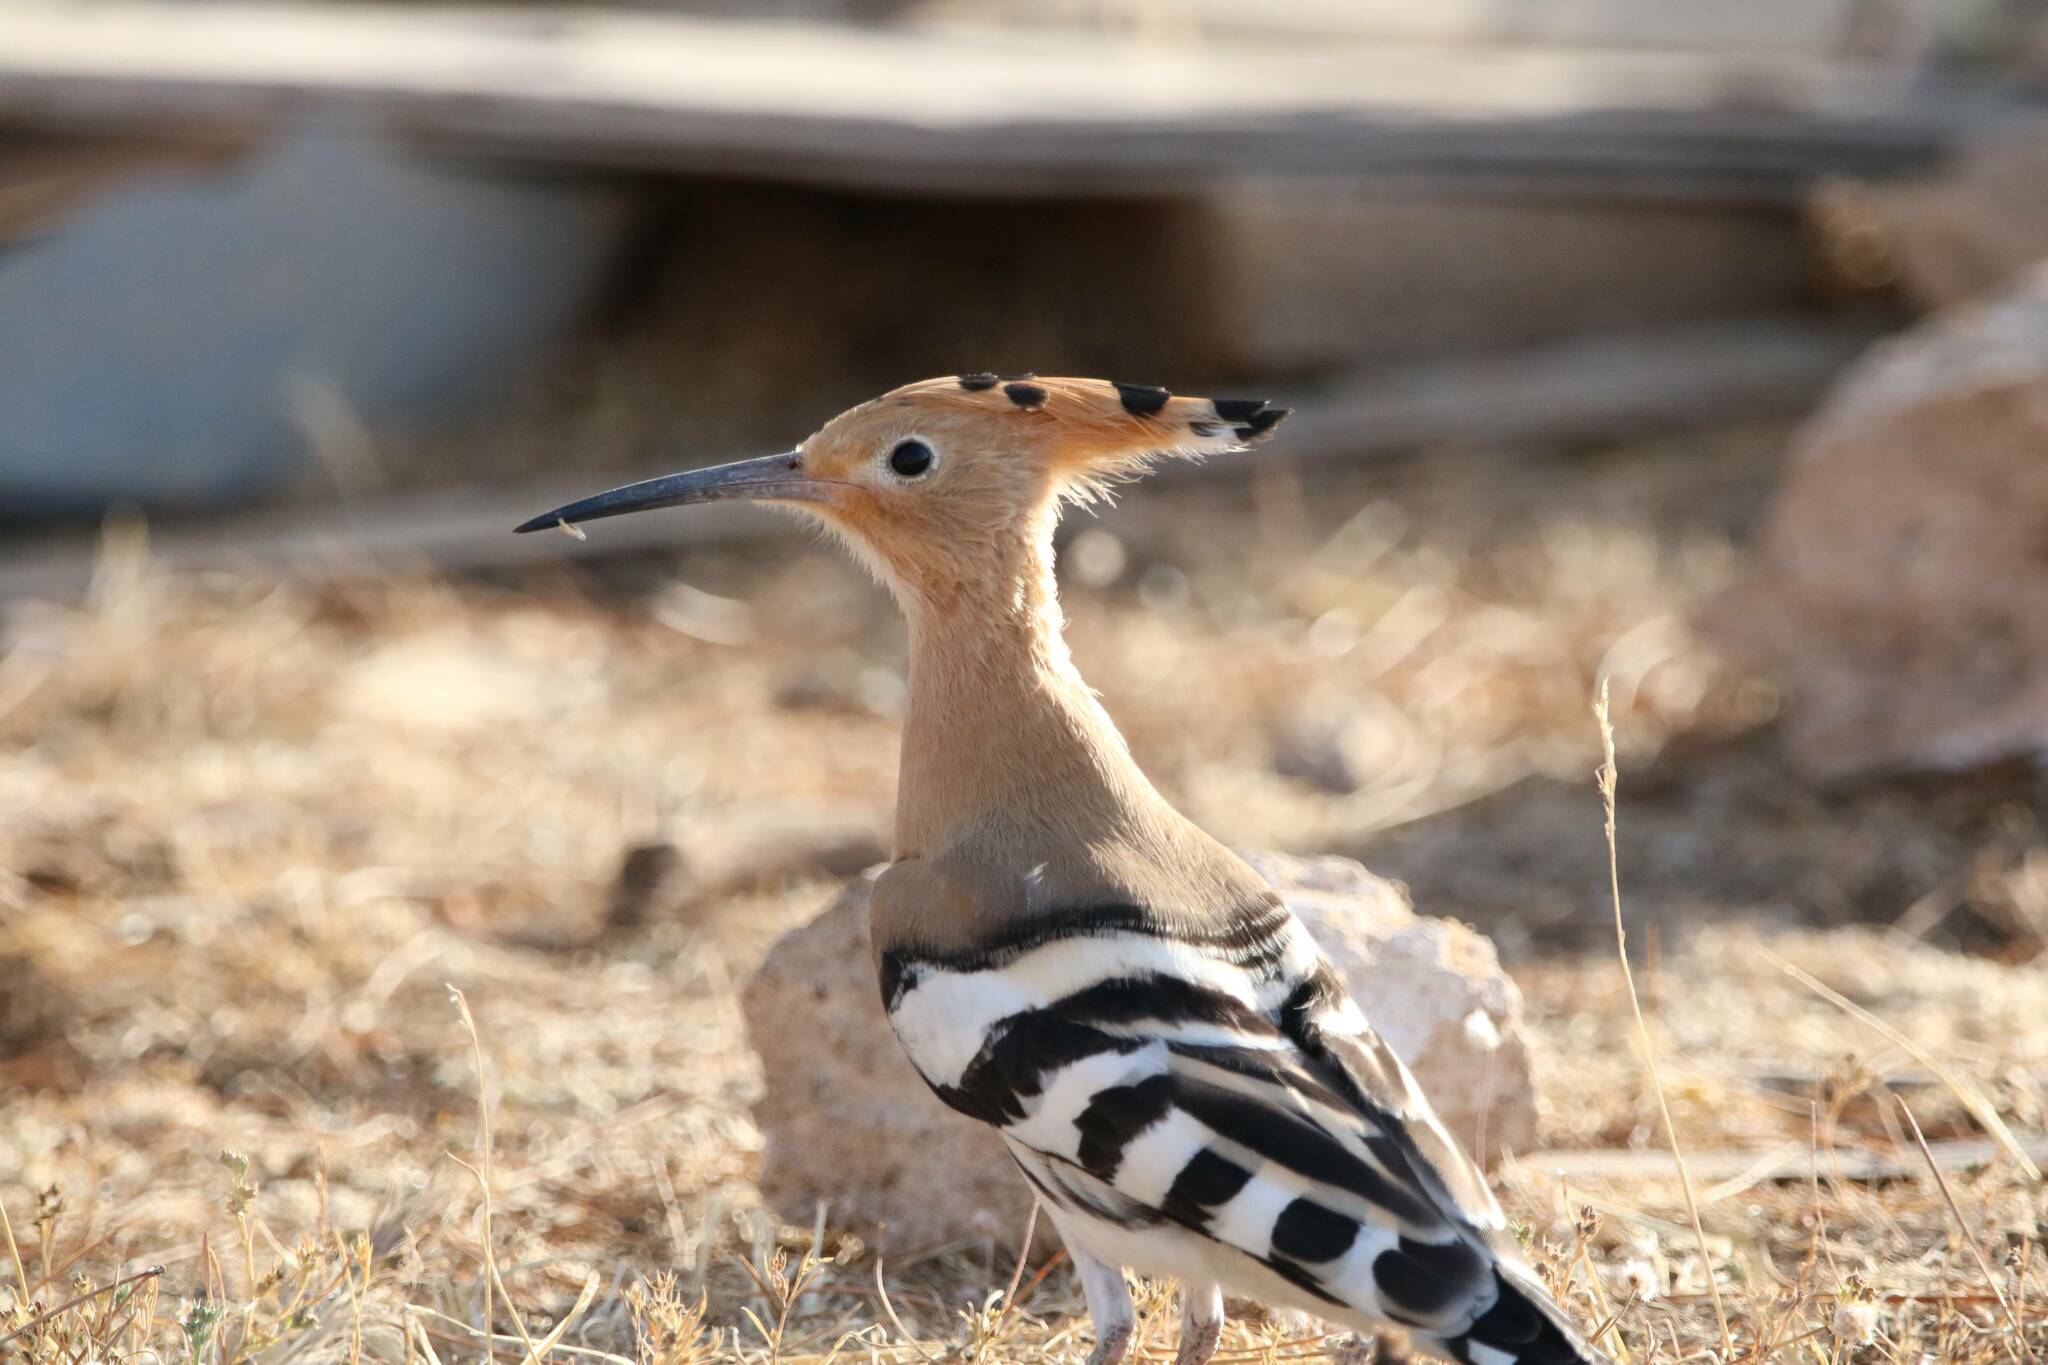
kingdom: Animalia
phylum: Chordata
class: Aves
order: Bucerotiformes
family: Upupidae
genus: Upupa
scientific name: Upupa epops
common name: Eurasian hoopoe
